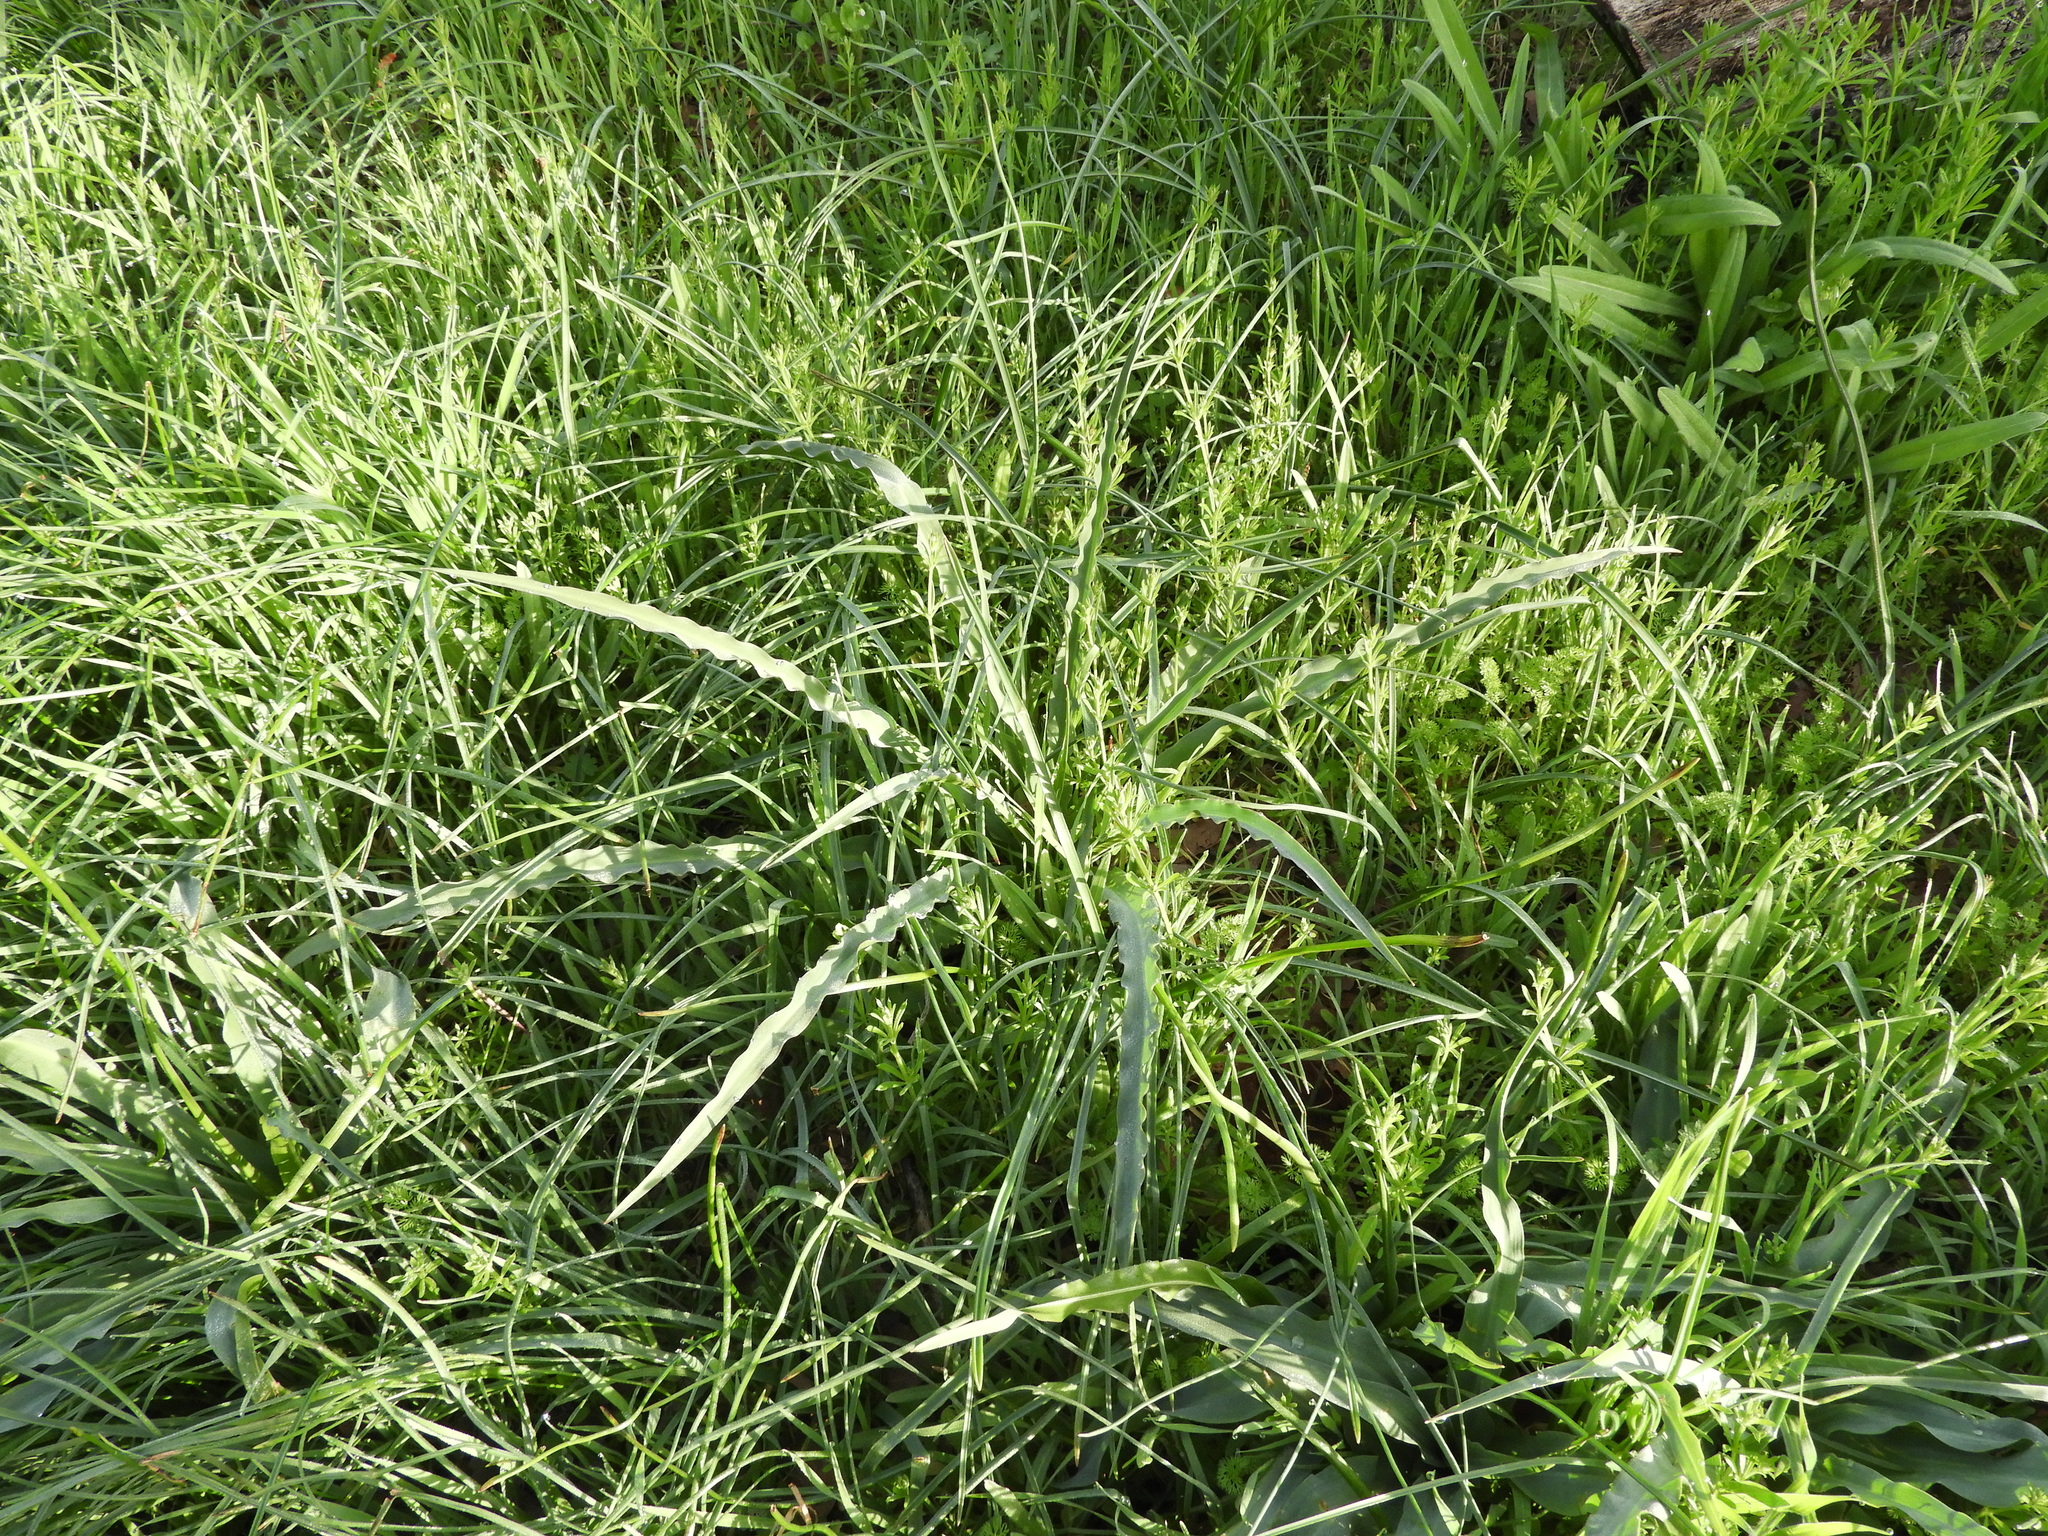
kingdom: Plantae
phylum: Tracheophyta
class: Liliopsida
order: Asparagales
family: Asparagaceae
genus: Chlorogalum
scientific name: Chlorogalum pomeridianum
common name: Amole
